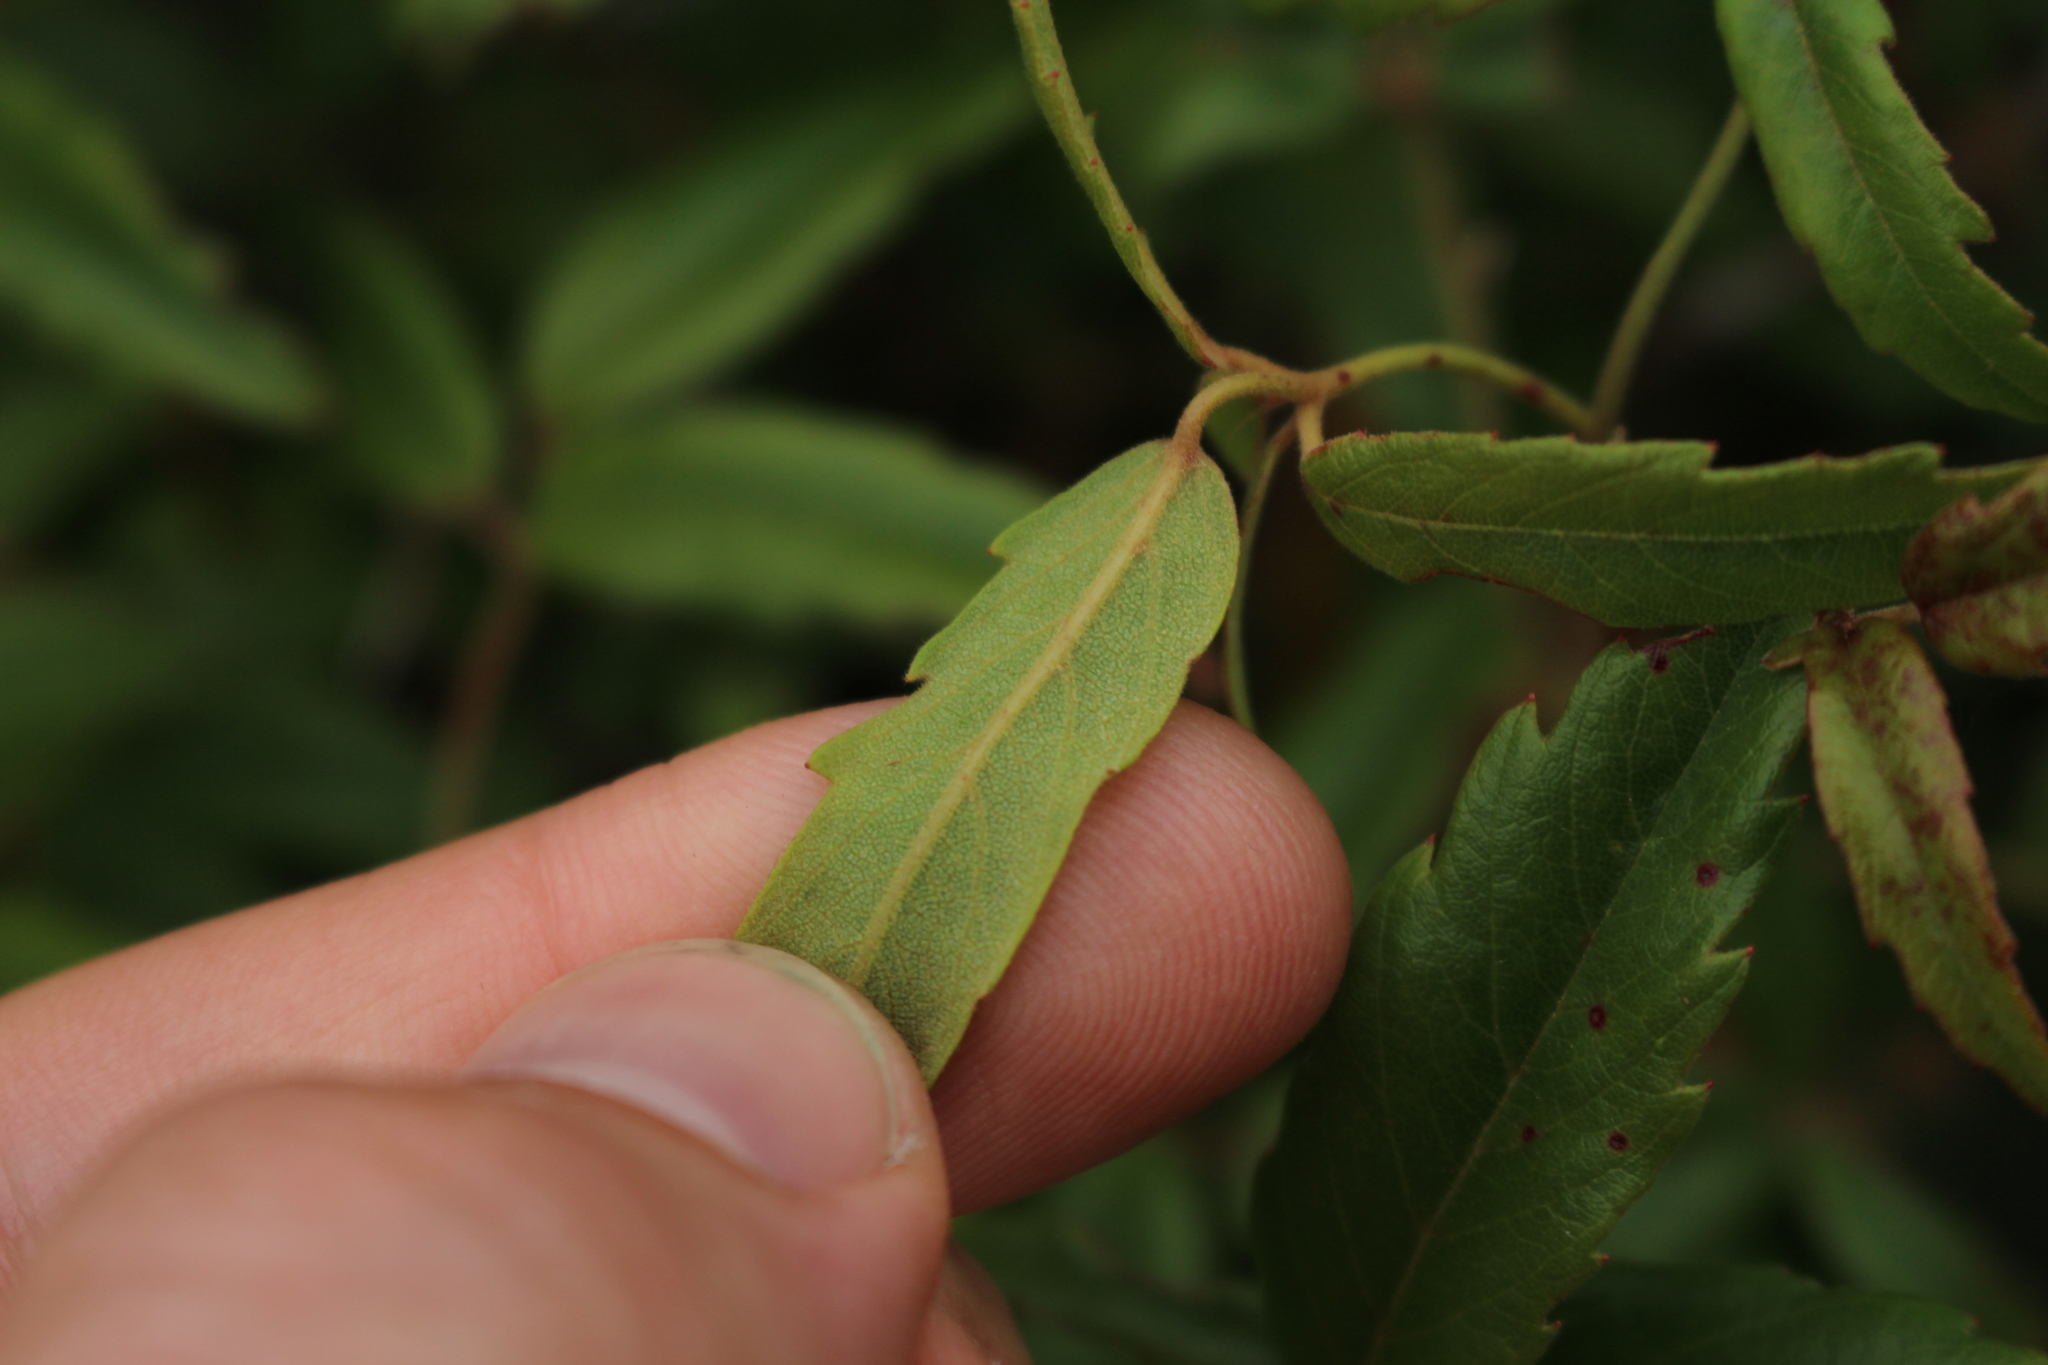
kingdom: Plantae
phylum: Tracheophyta
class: Magnoliopsida
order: Rosales
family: Rosaceae
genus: Rubus
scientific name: Rubus schmidelioides
